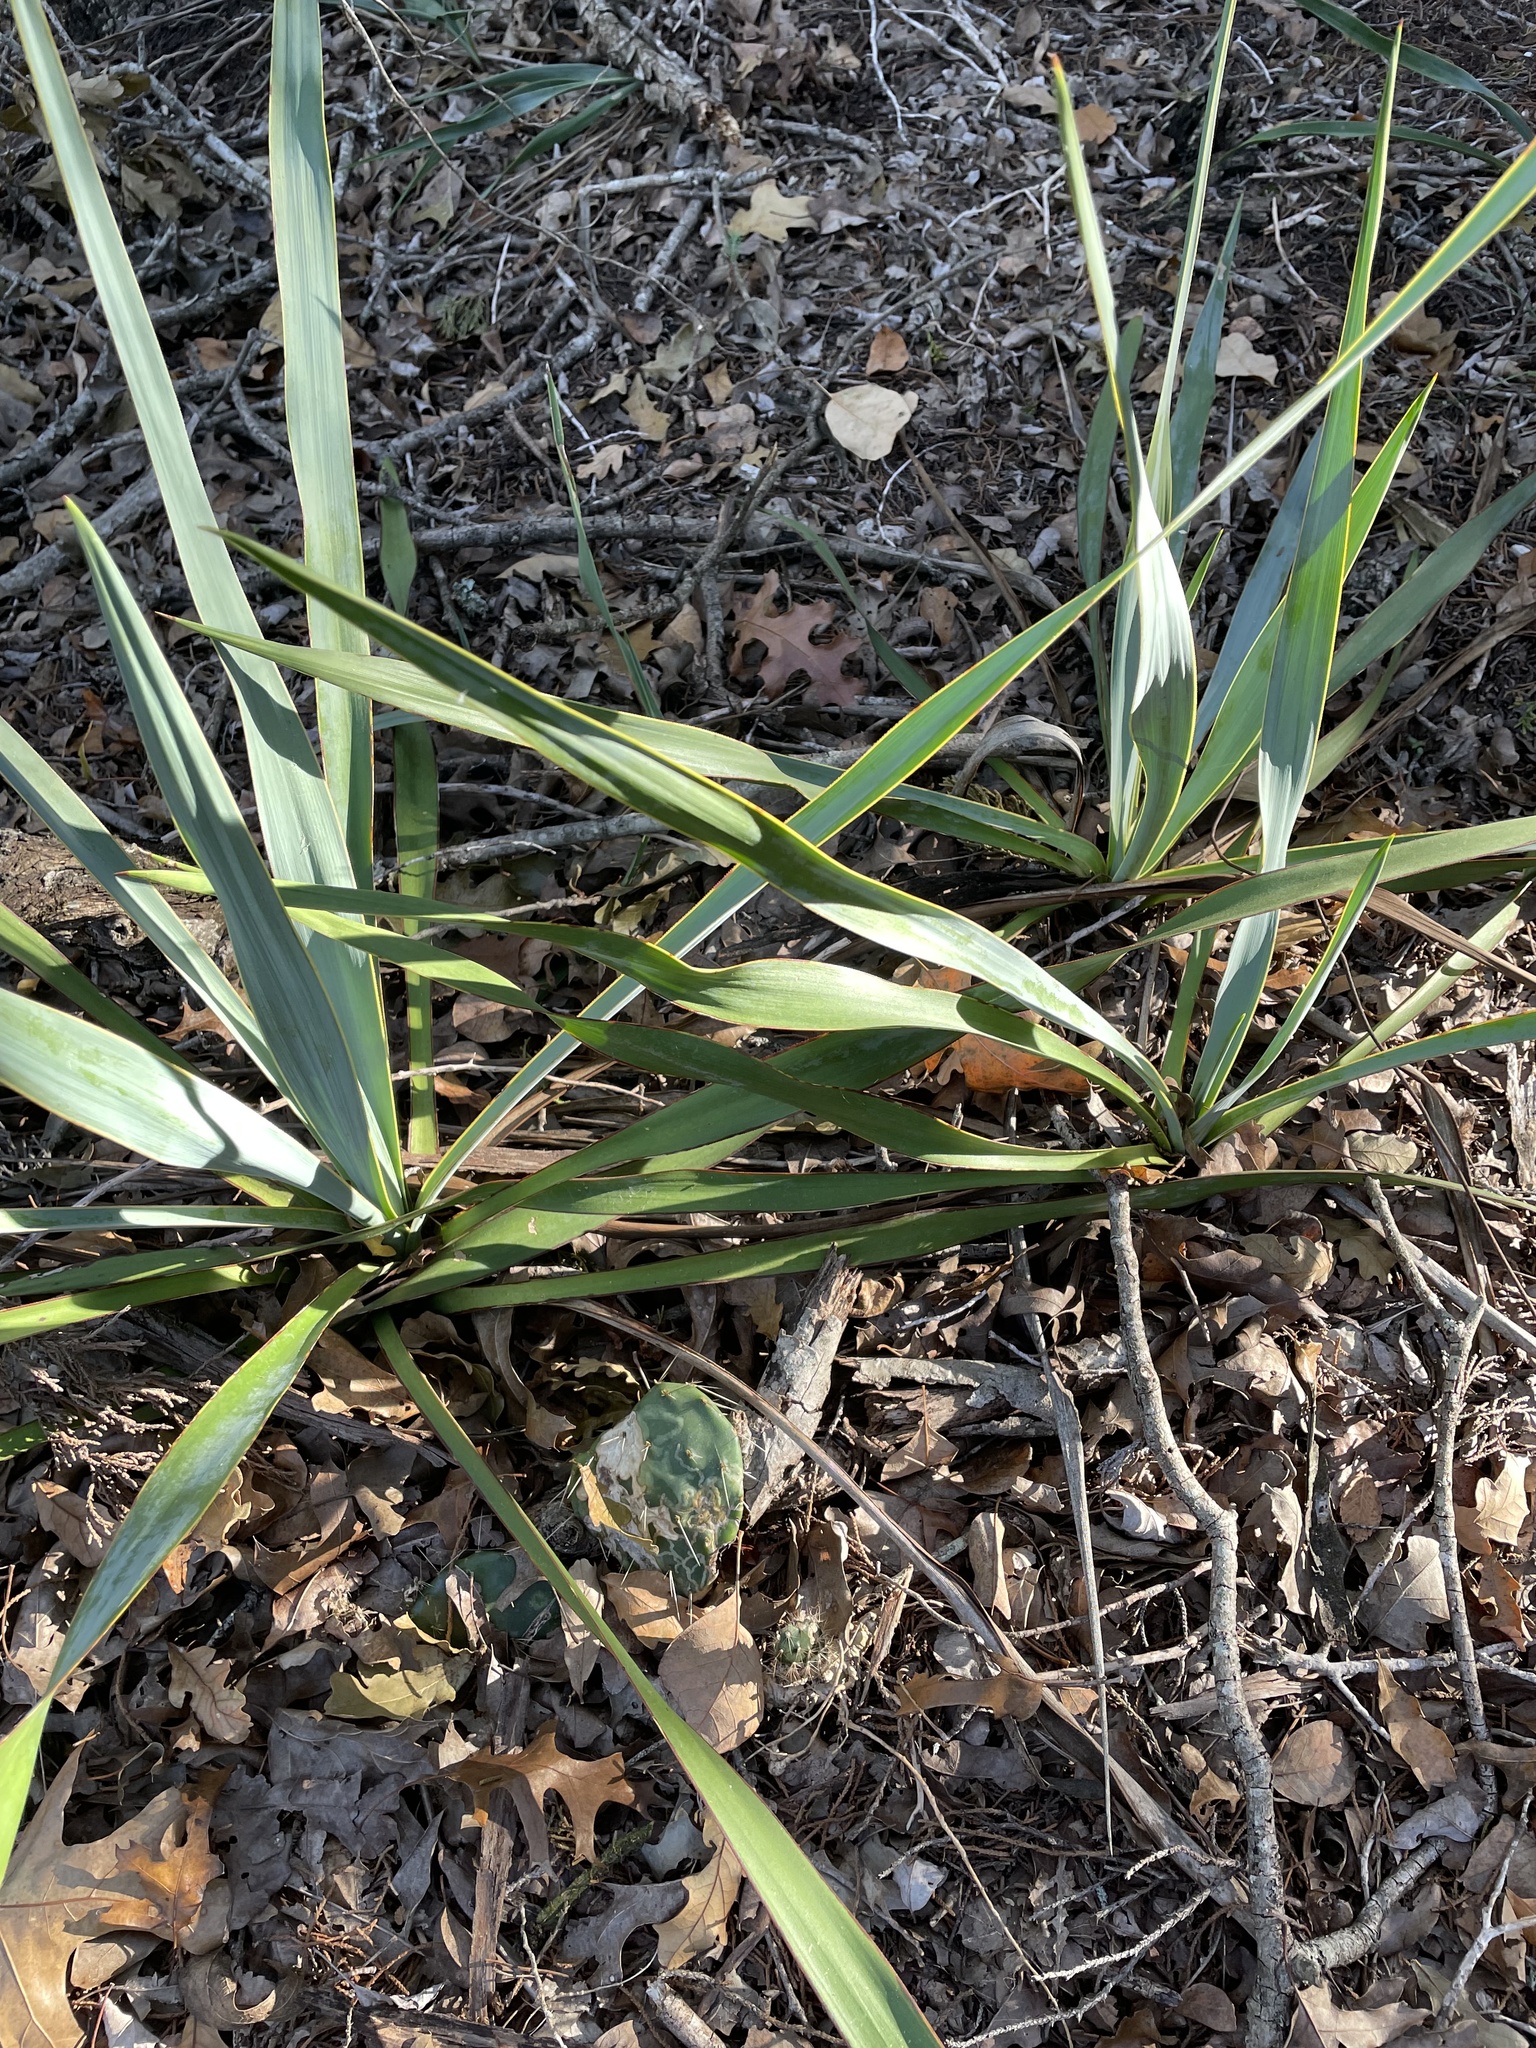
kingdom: Plantae
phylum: Tracheophyta
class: Liliopsida
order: Asparagales
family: Asparagaceae
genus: Yucca
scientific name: Yucca rupicola
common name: Twisted-leaf spanish-dagger
